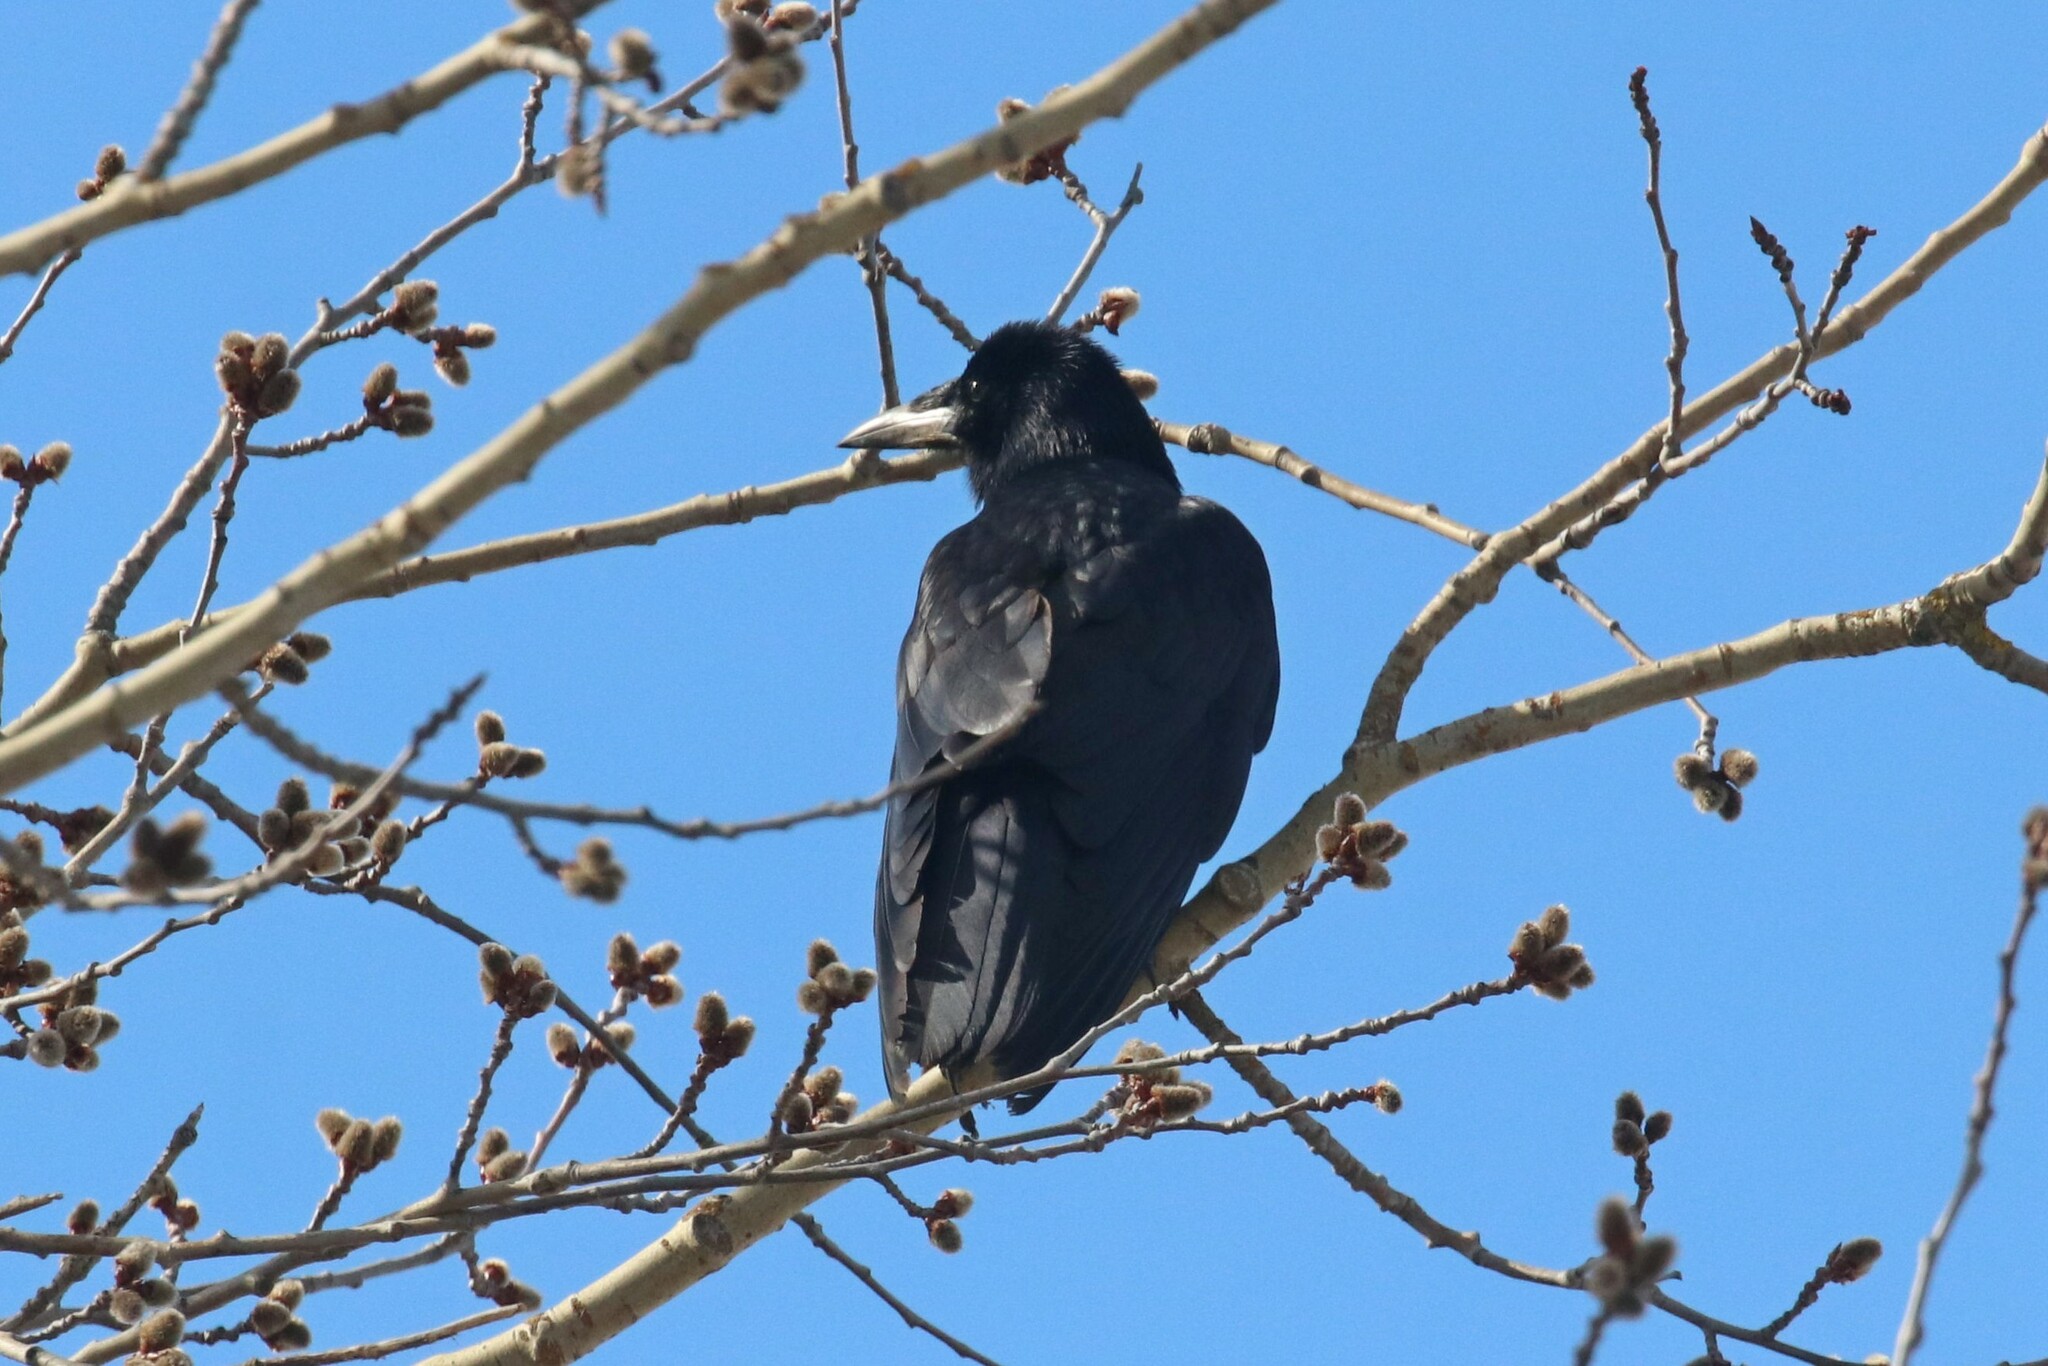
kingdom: Animalia
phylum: Chordata
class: Aves
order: Passeriformes
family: Corvidae
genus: Corvus
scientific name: Corvus frugilegus
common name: Rook
